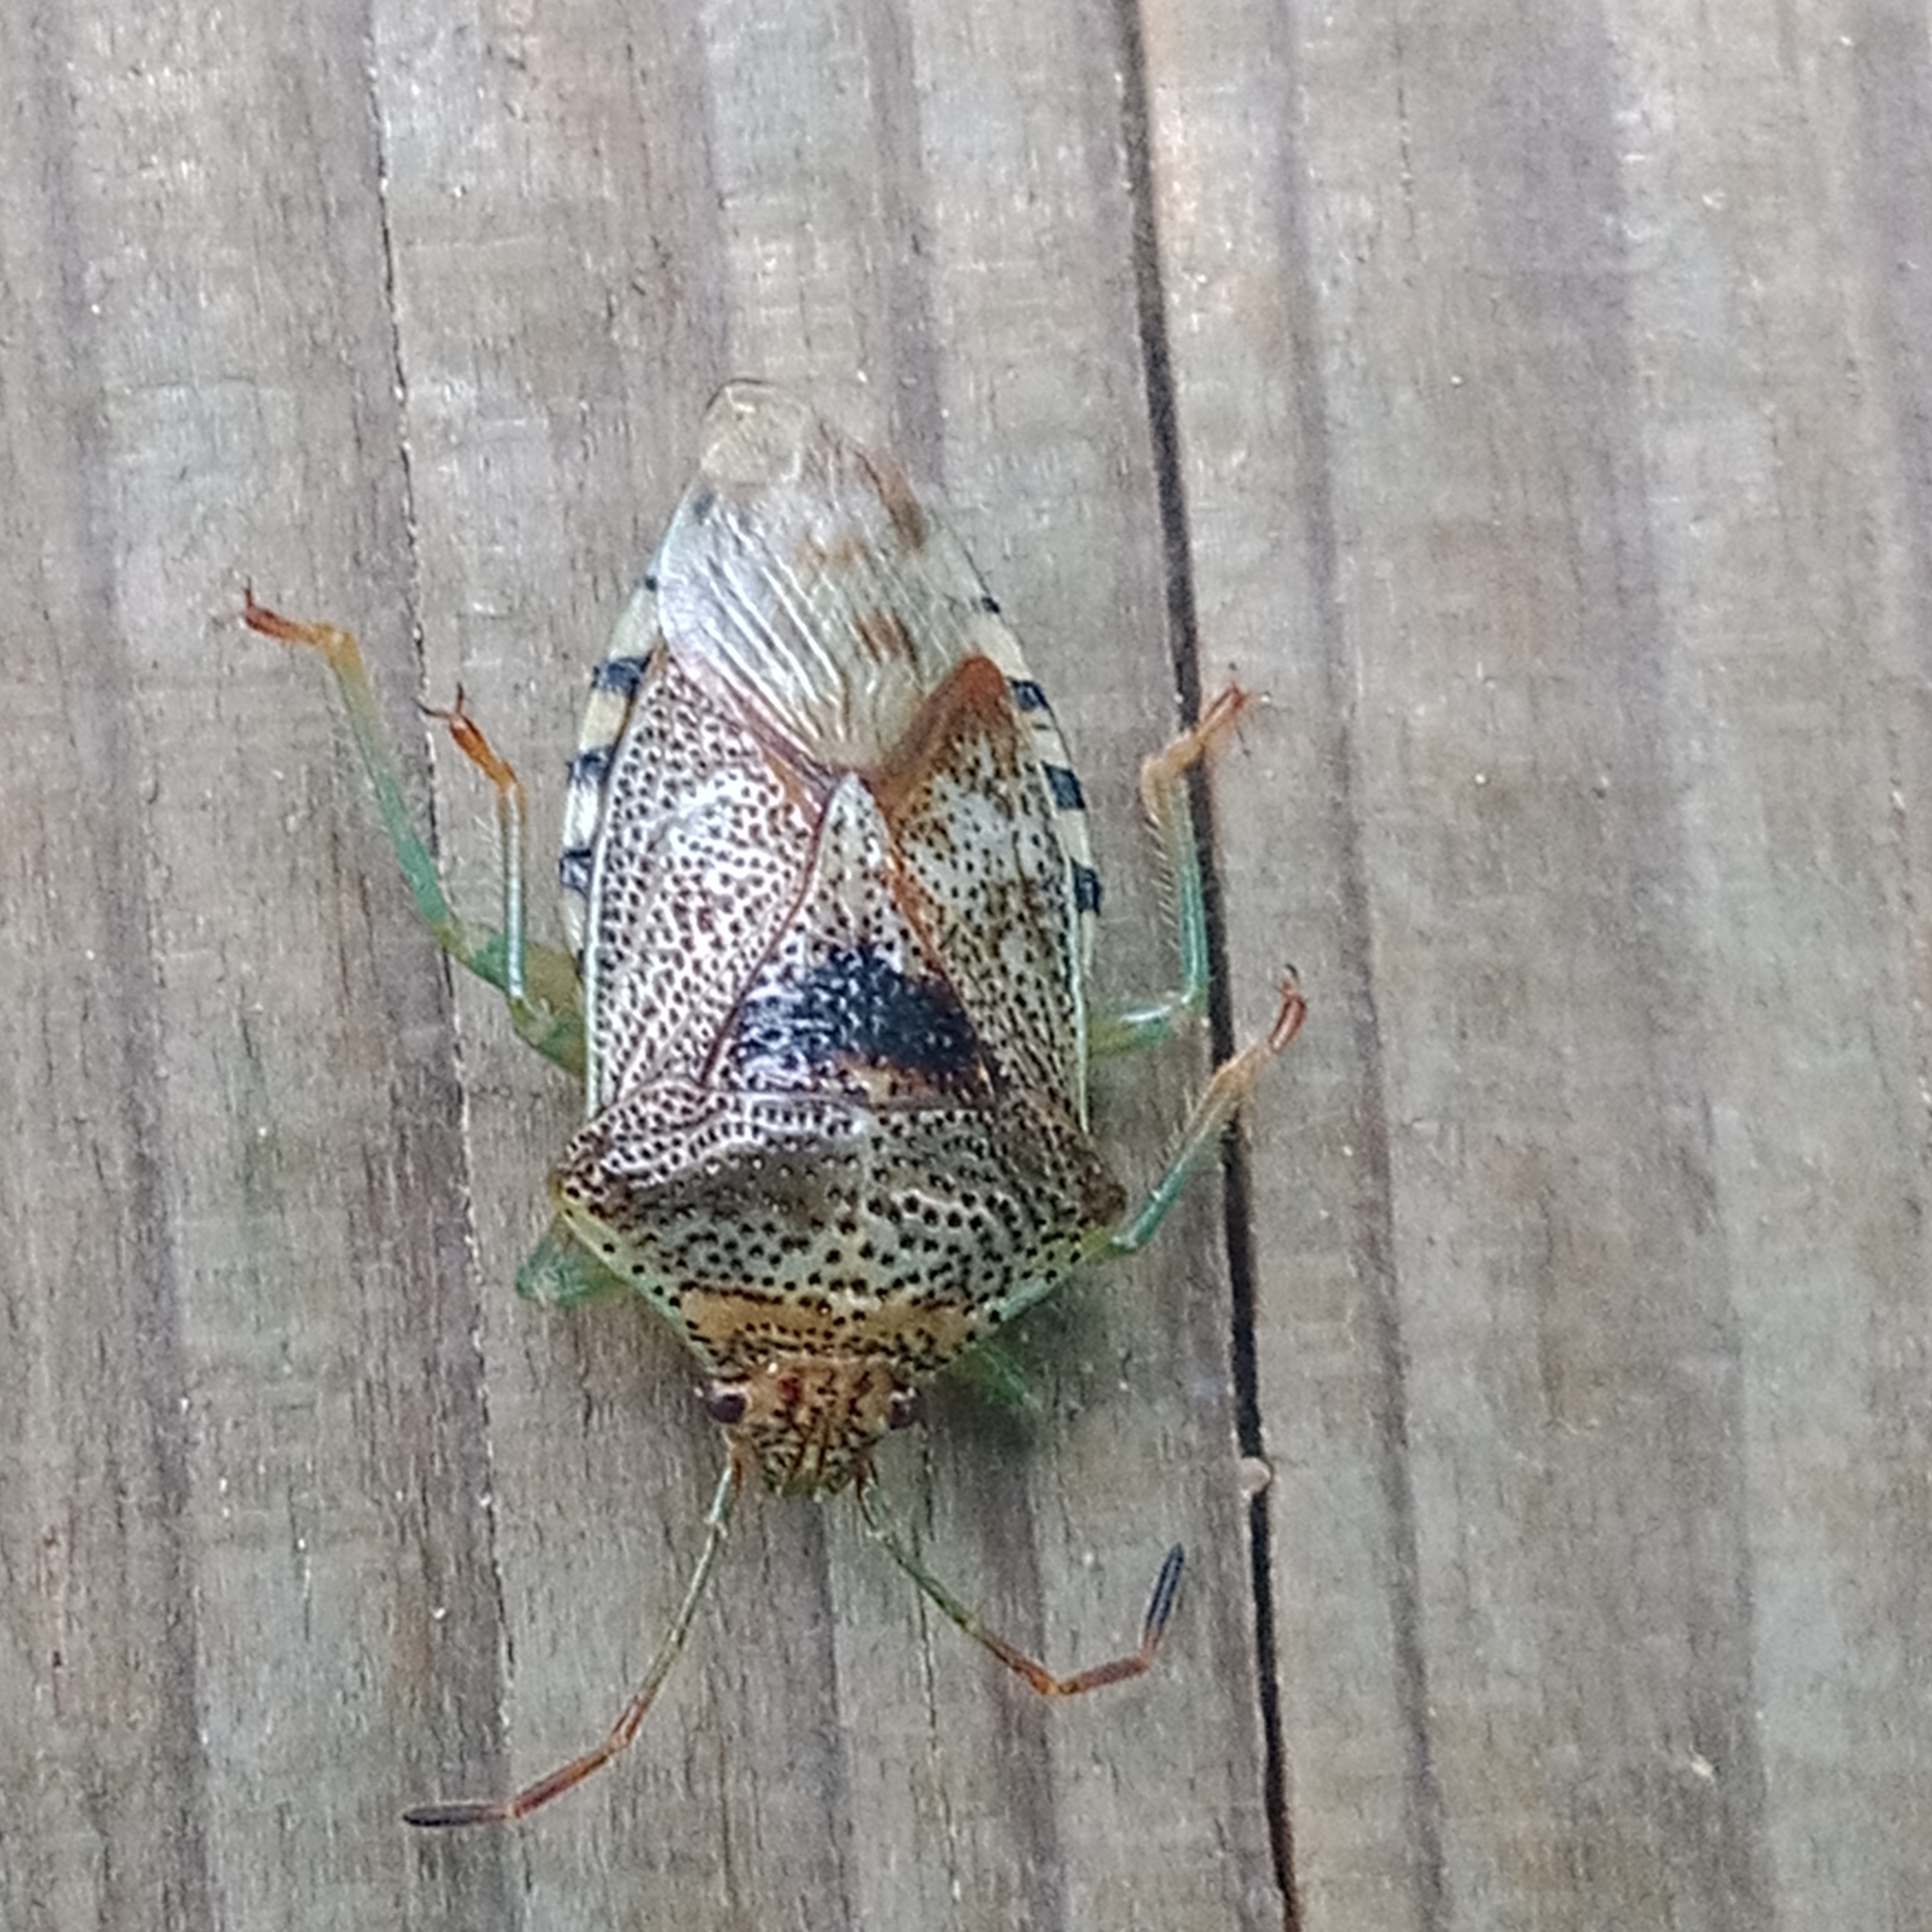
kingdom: Animalia
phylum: Arthropoda
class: Insecta
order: Hemiptera
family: Acanthosomatidae
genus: Elasmucha
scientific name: Elasmucha grisea
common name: Parent bug
